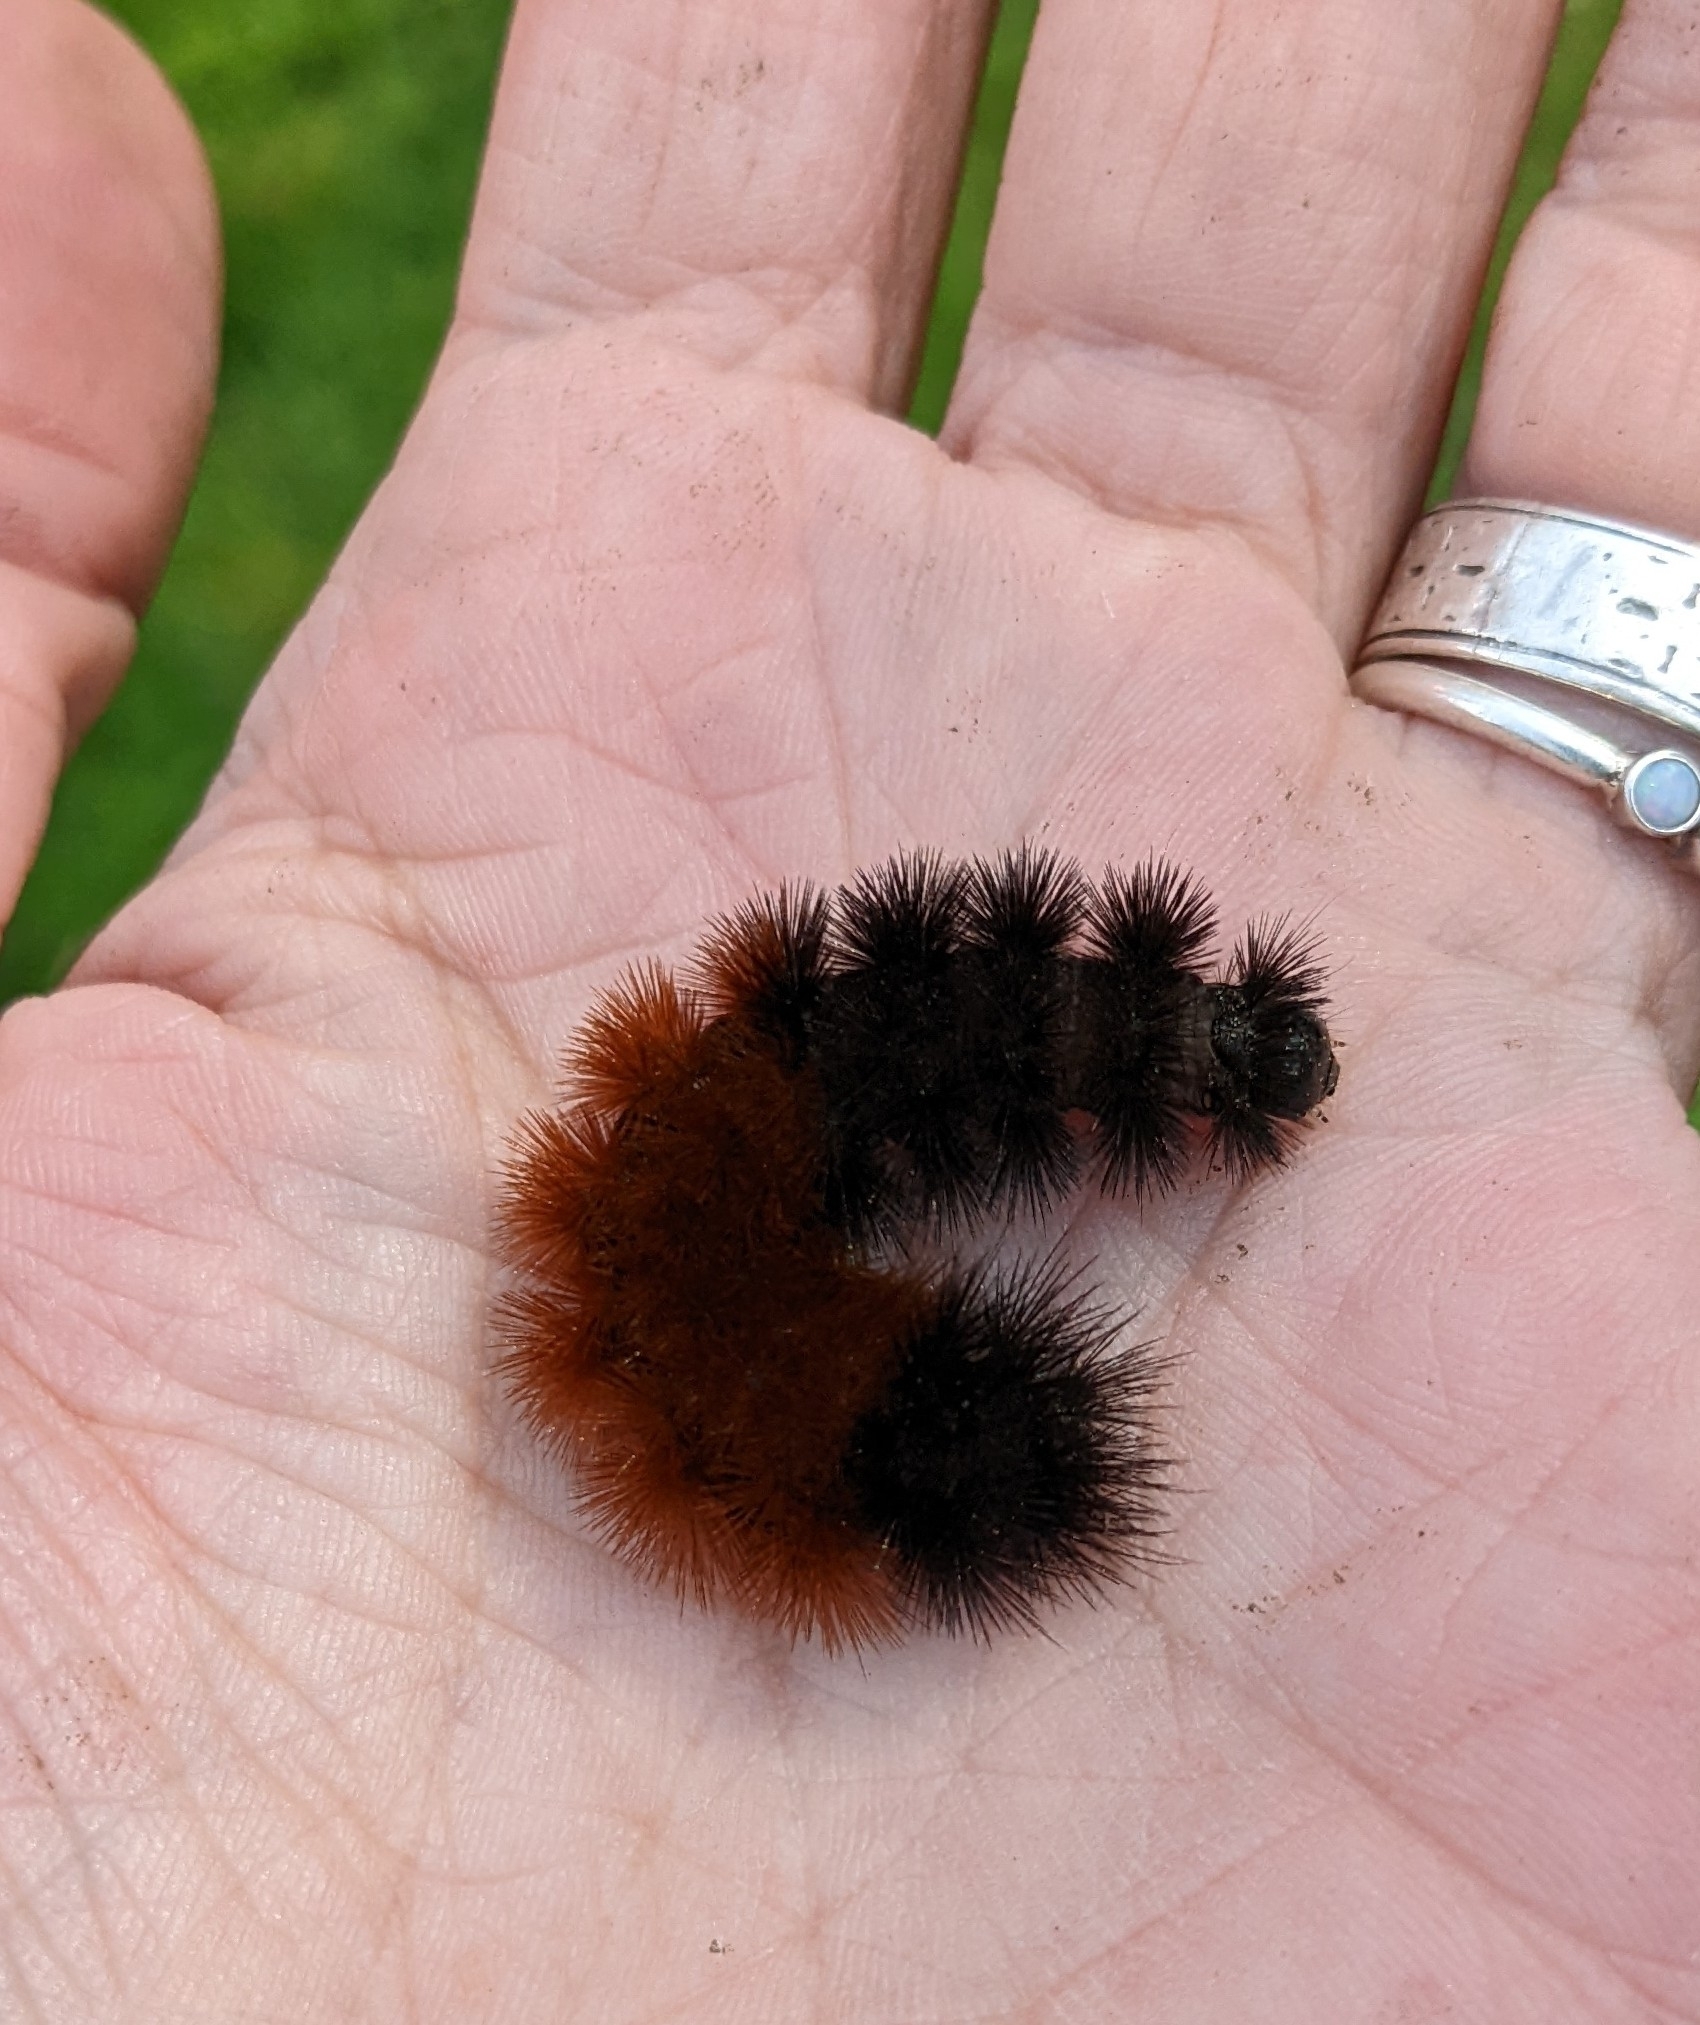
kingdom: Animalia
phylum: Arthropoda
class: Insecta
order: Lepidoptera
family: Erebidae
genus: Pyrrharctia
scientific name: Pyrrharctia isabella
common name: Isabella tiger moth
